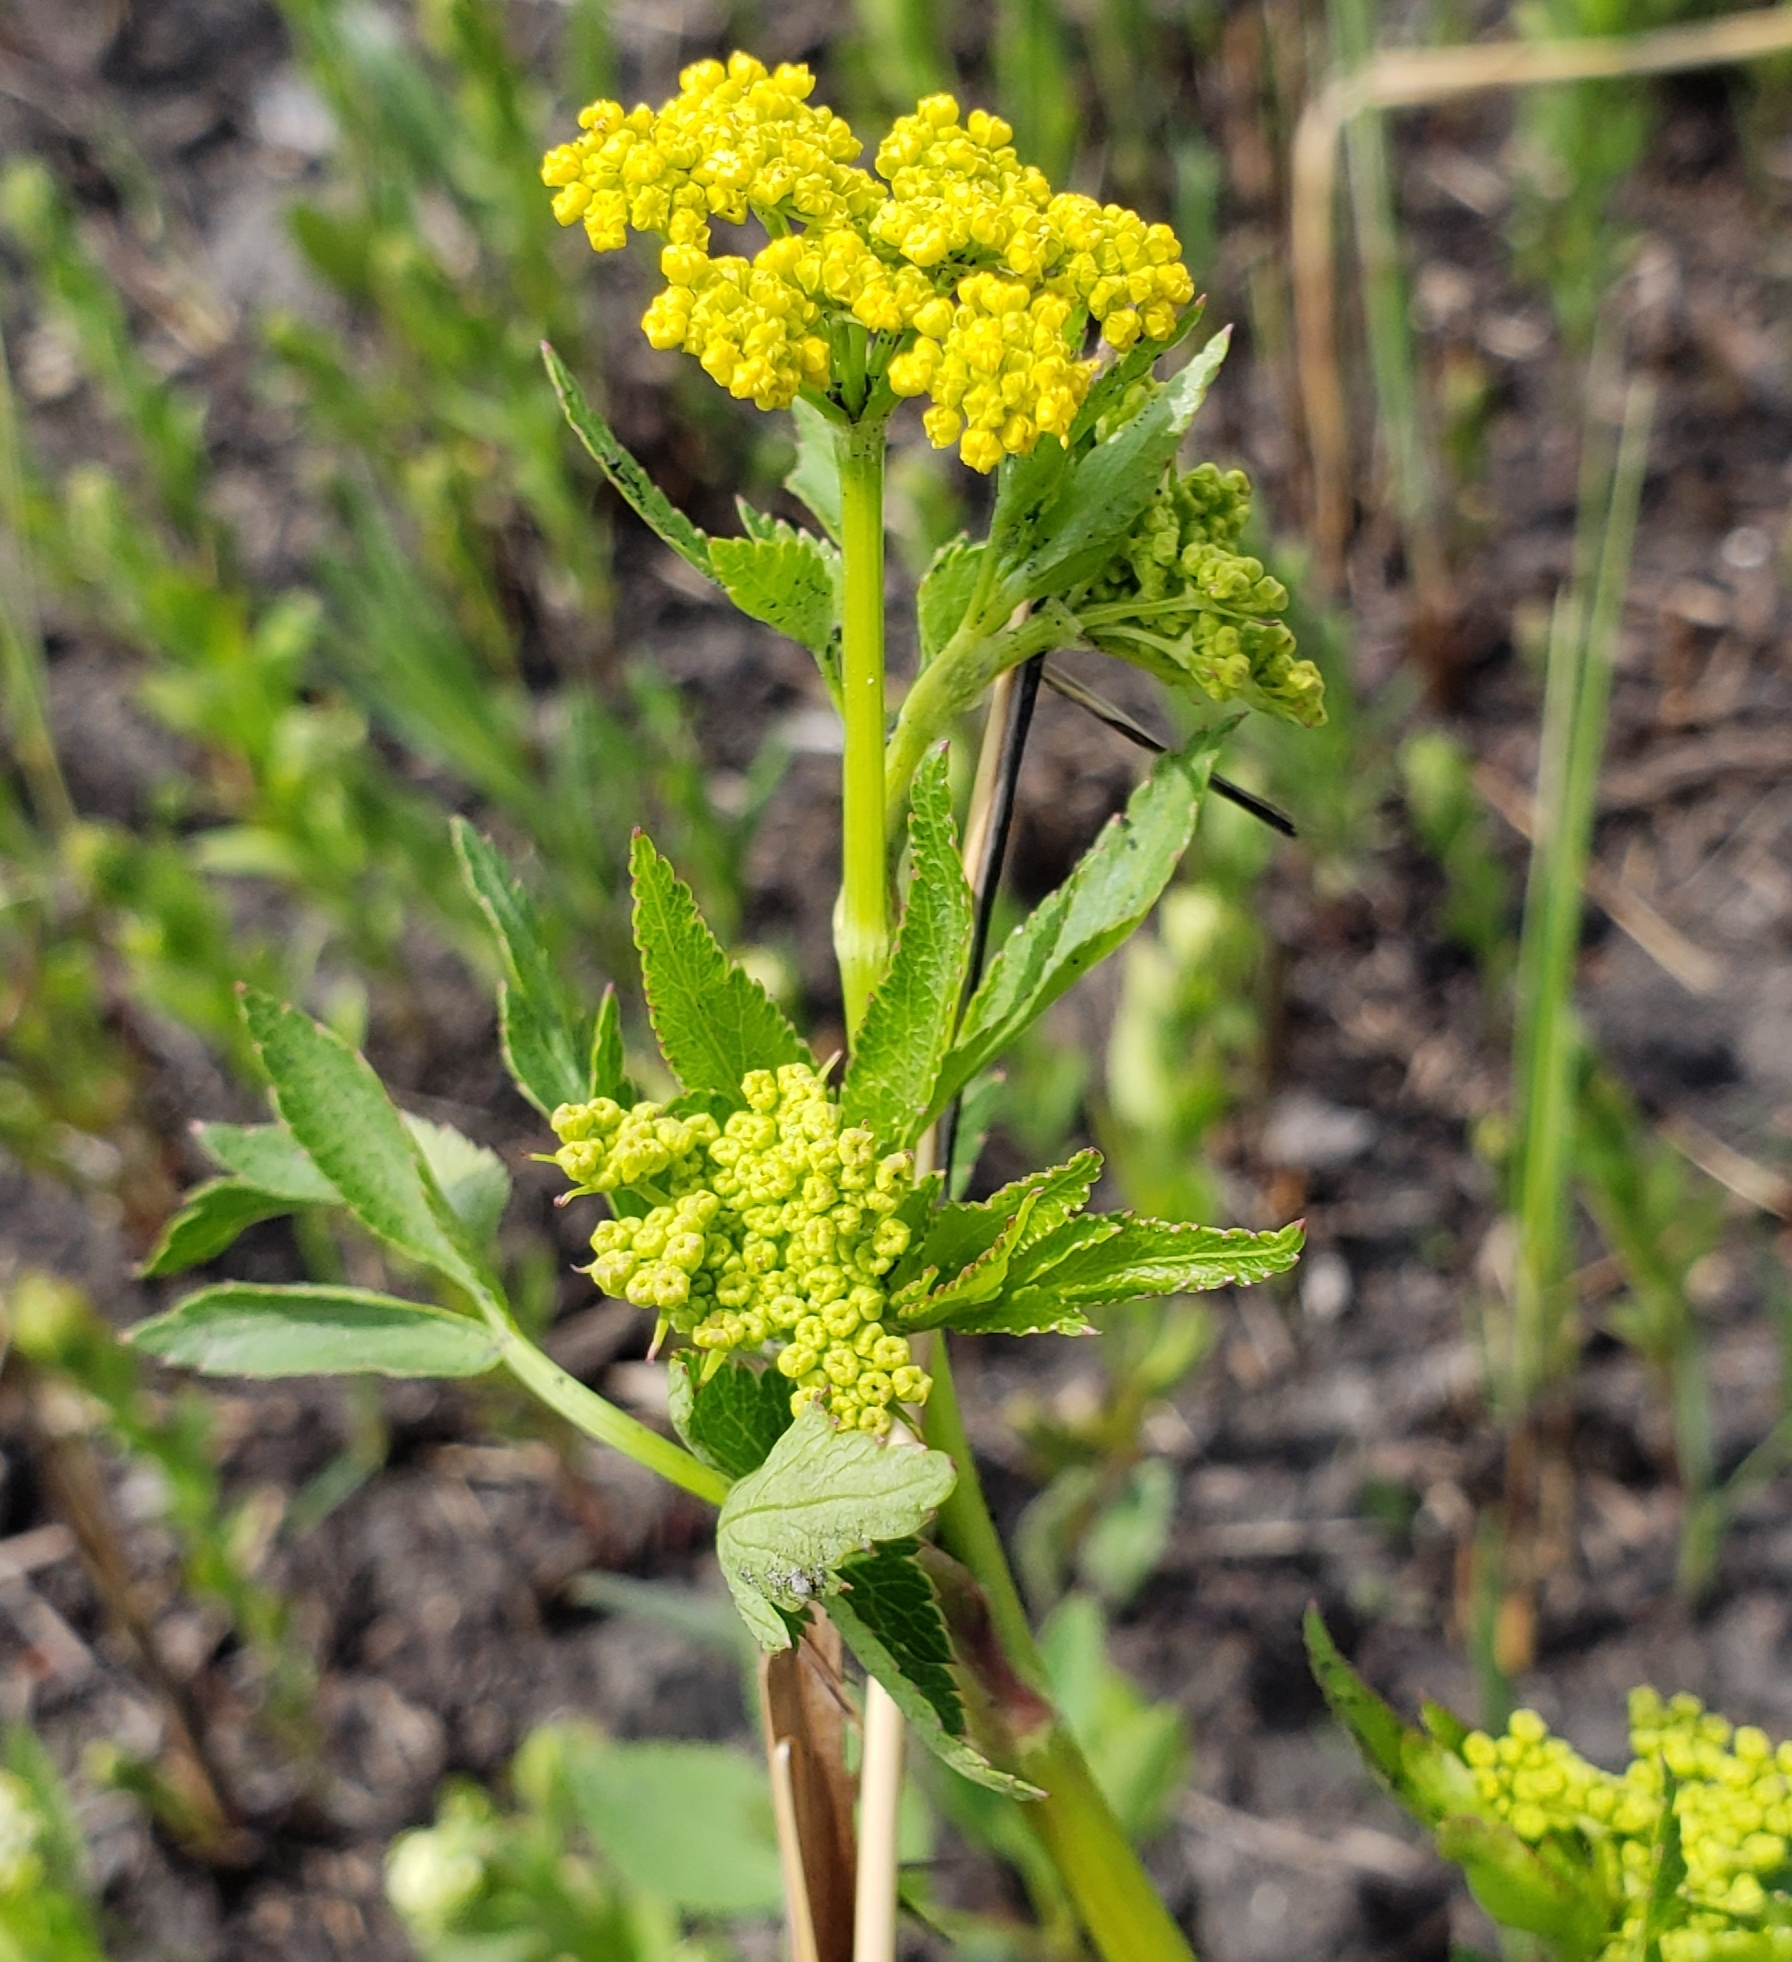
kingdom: Plantae
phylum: Tracheophyta
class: Magnoliopsida
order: Apiales
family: Apiaceae
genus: Zizia
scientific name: Zizia aurea
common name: Golden alexanders
